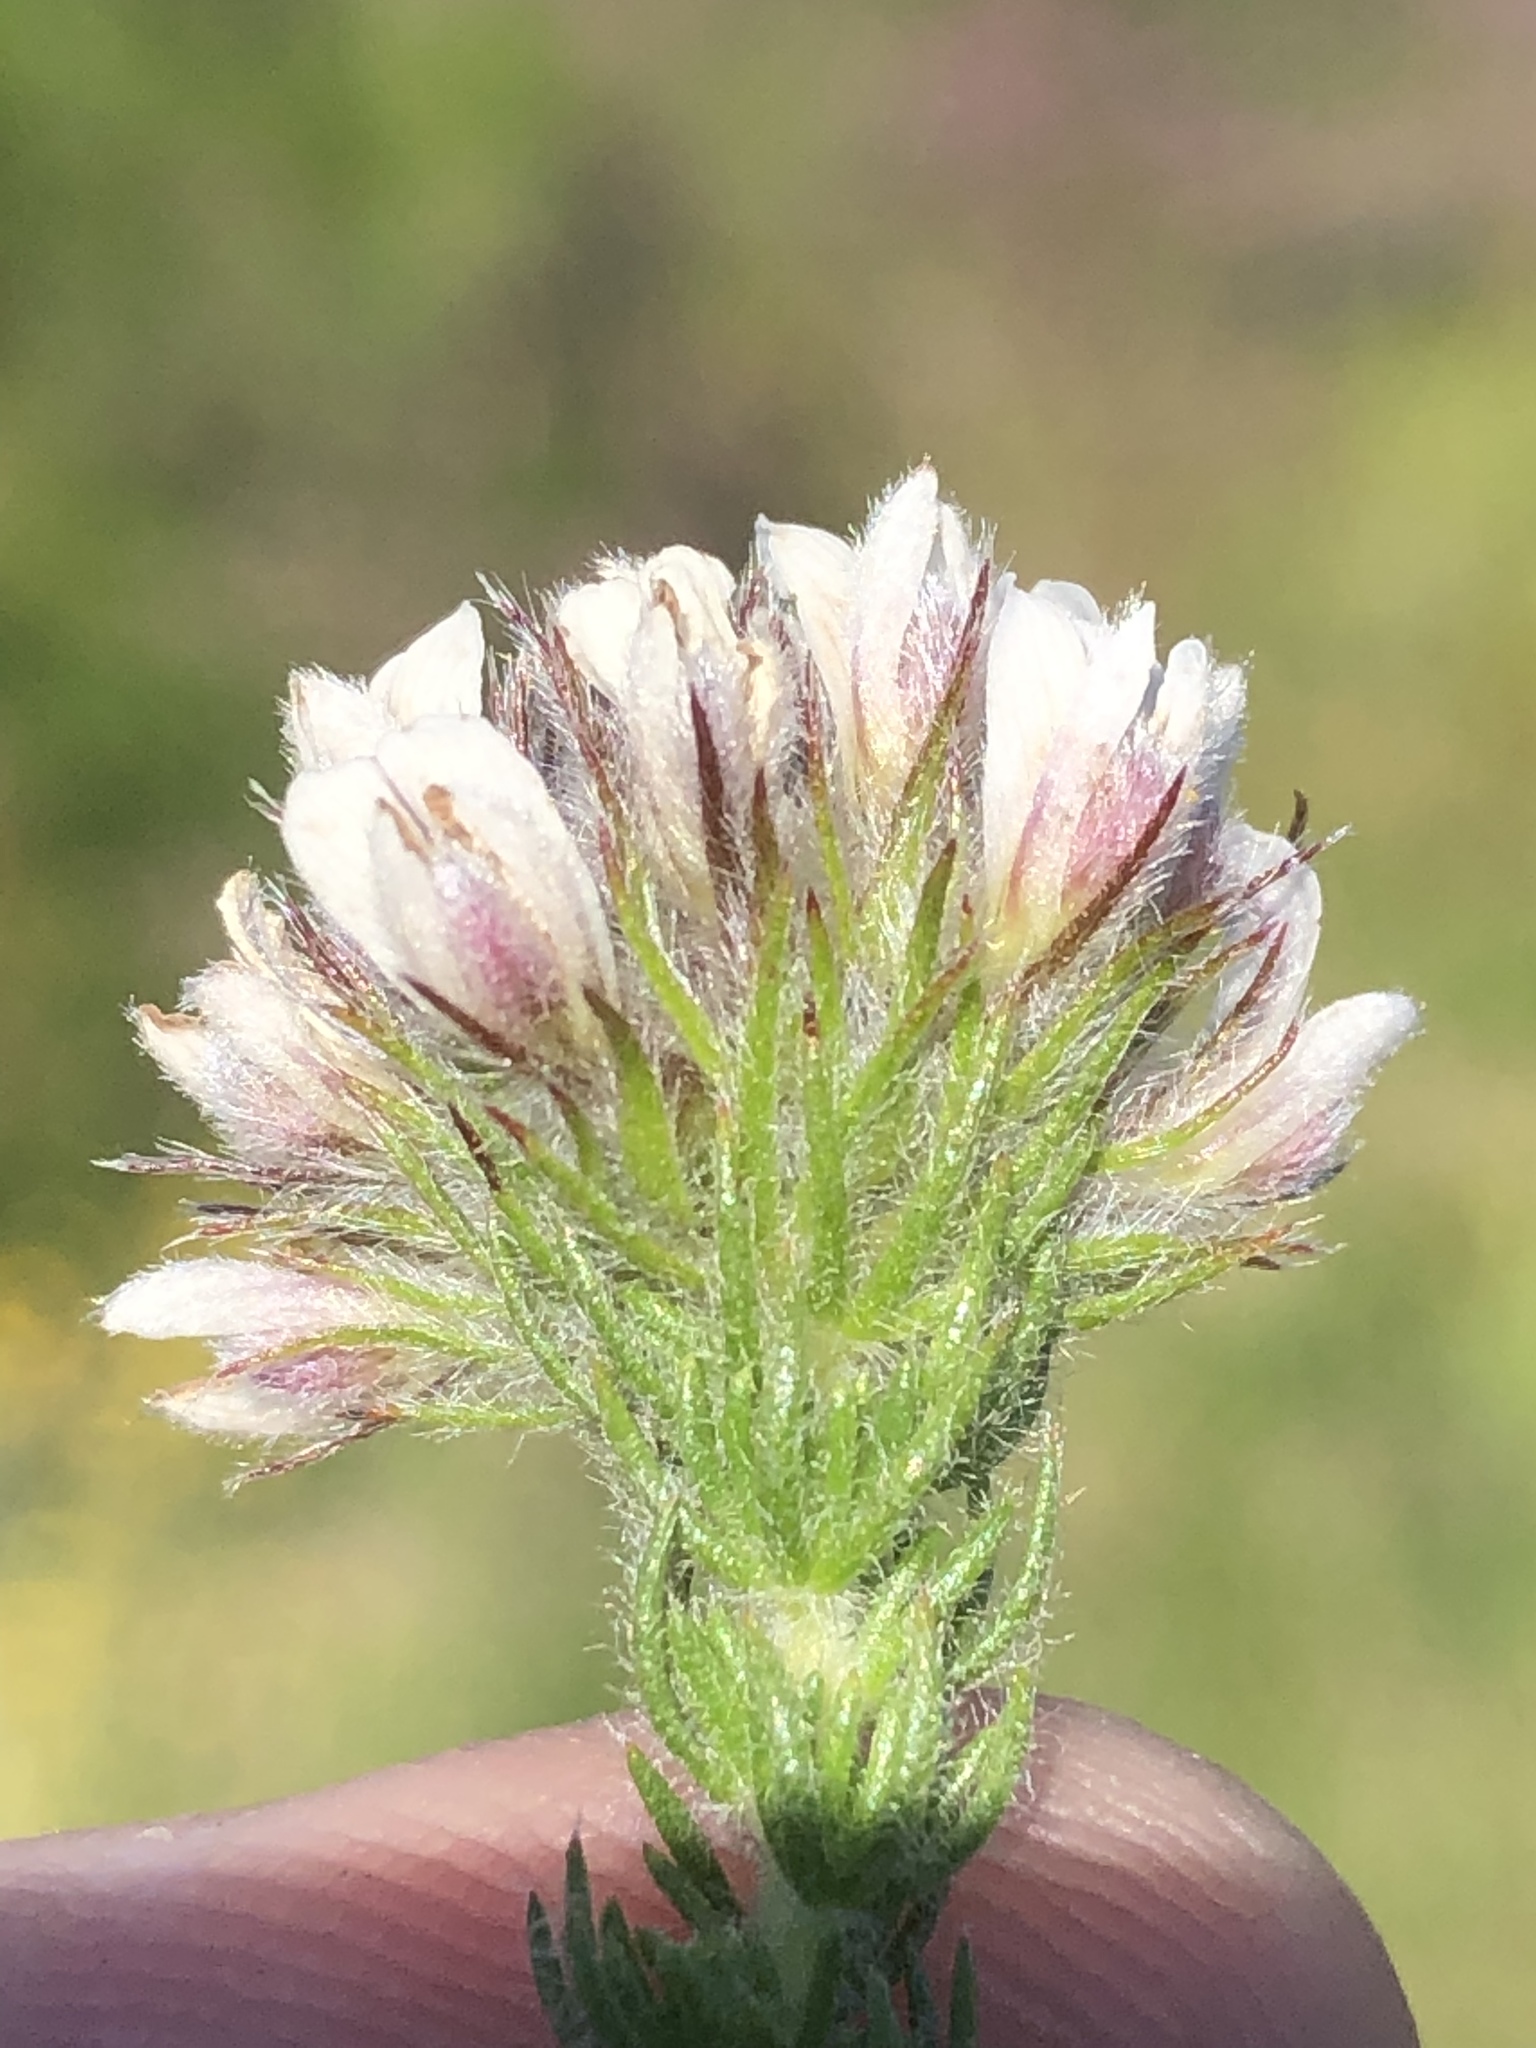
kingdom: Plantae
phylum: Tracheophyta
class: Magnoliopsida
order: Fabales
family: Fabaceae
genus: Aspalathus
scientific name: Aspalathus cerrhantha
